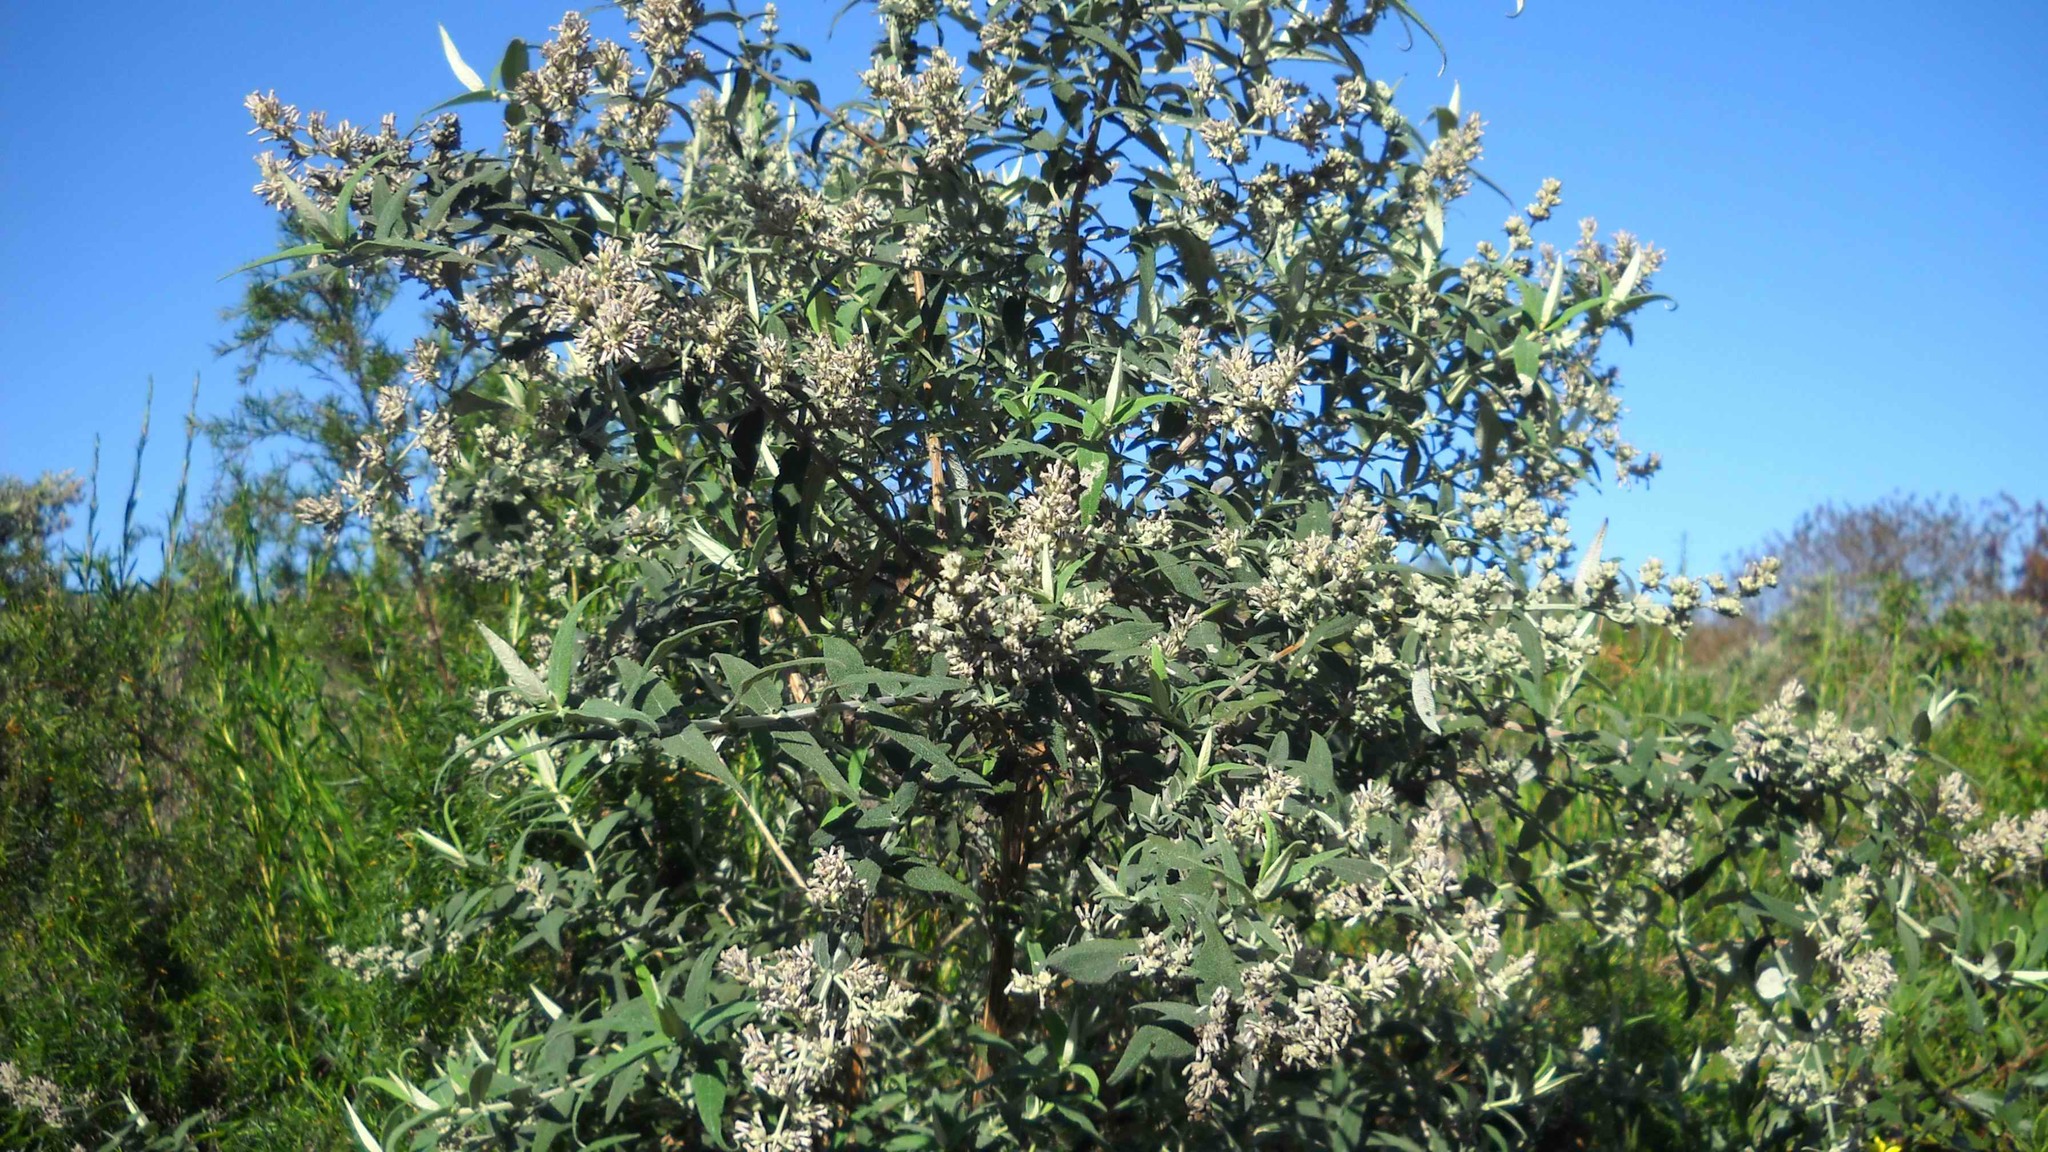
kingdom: Plantae
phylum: Tracheophyta
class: Magnoliopsida
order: Lamiales
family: Scrophulariaceae
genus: Buddleja
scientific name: Buddleja salviifolia
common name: Sagewood
